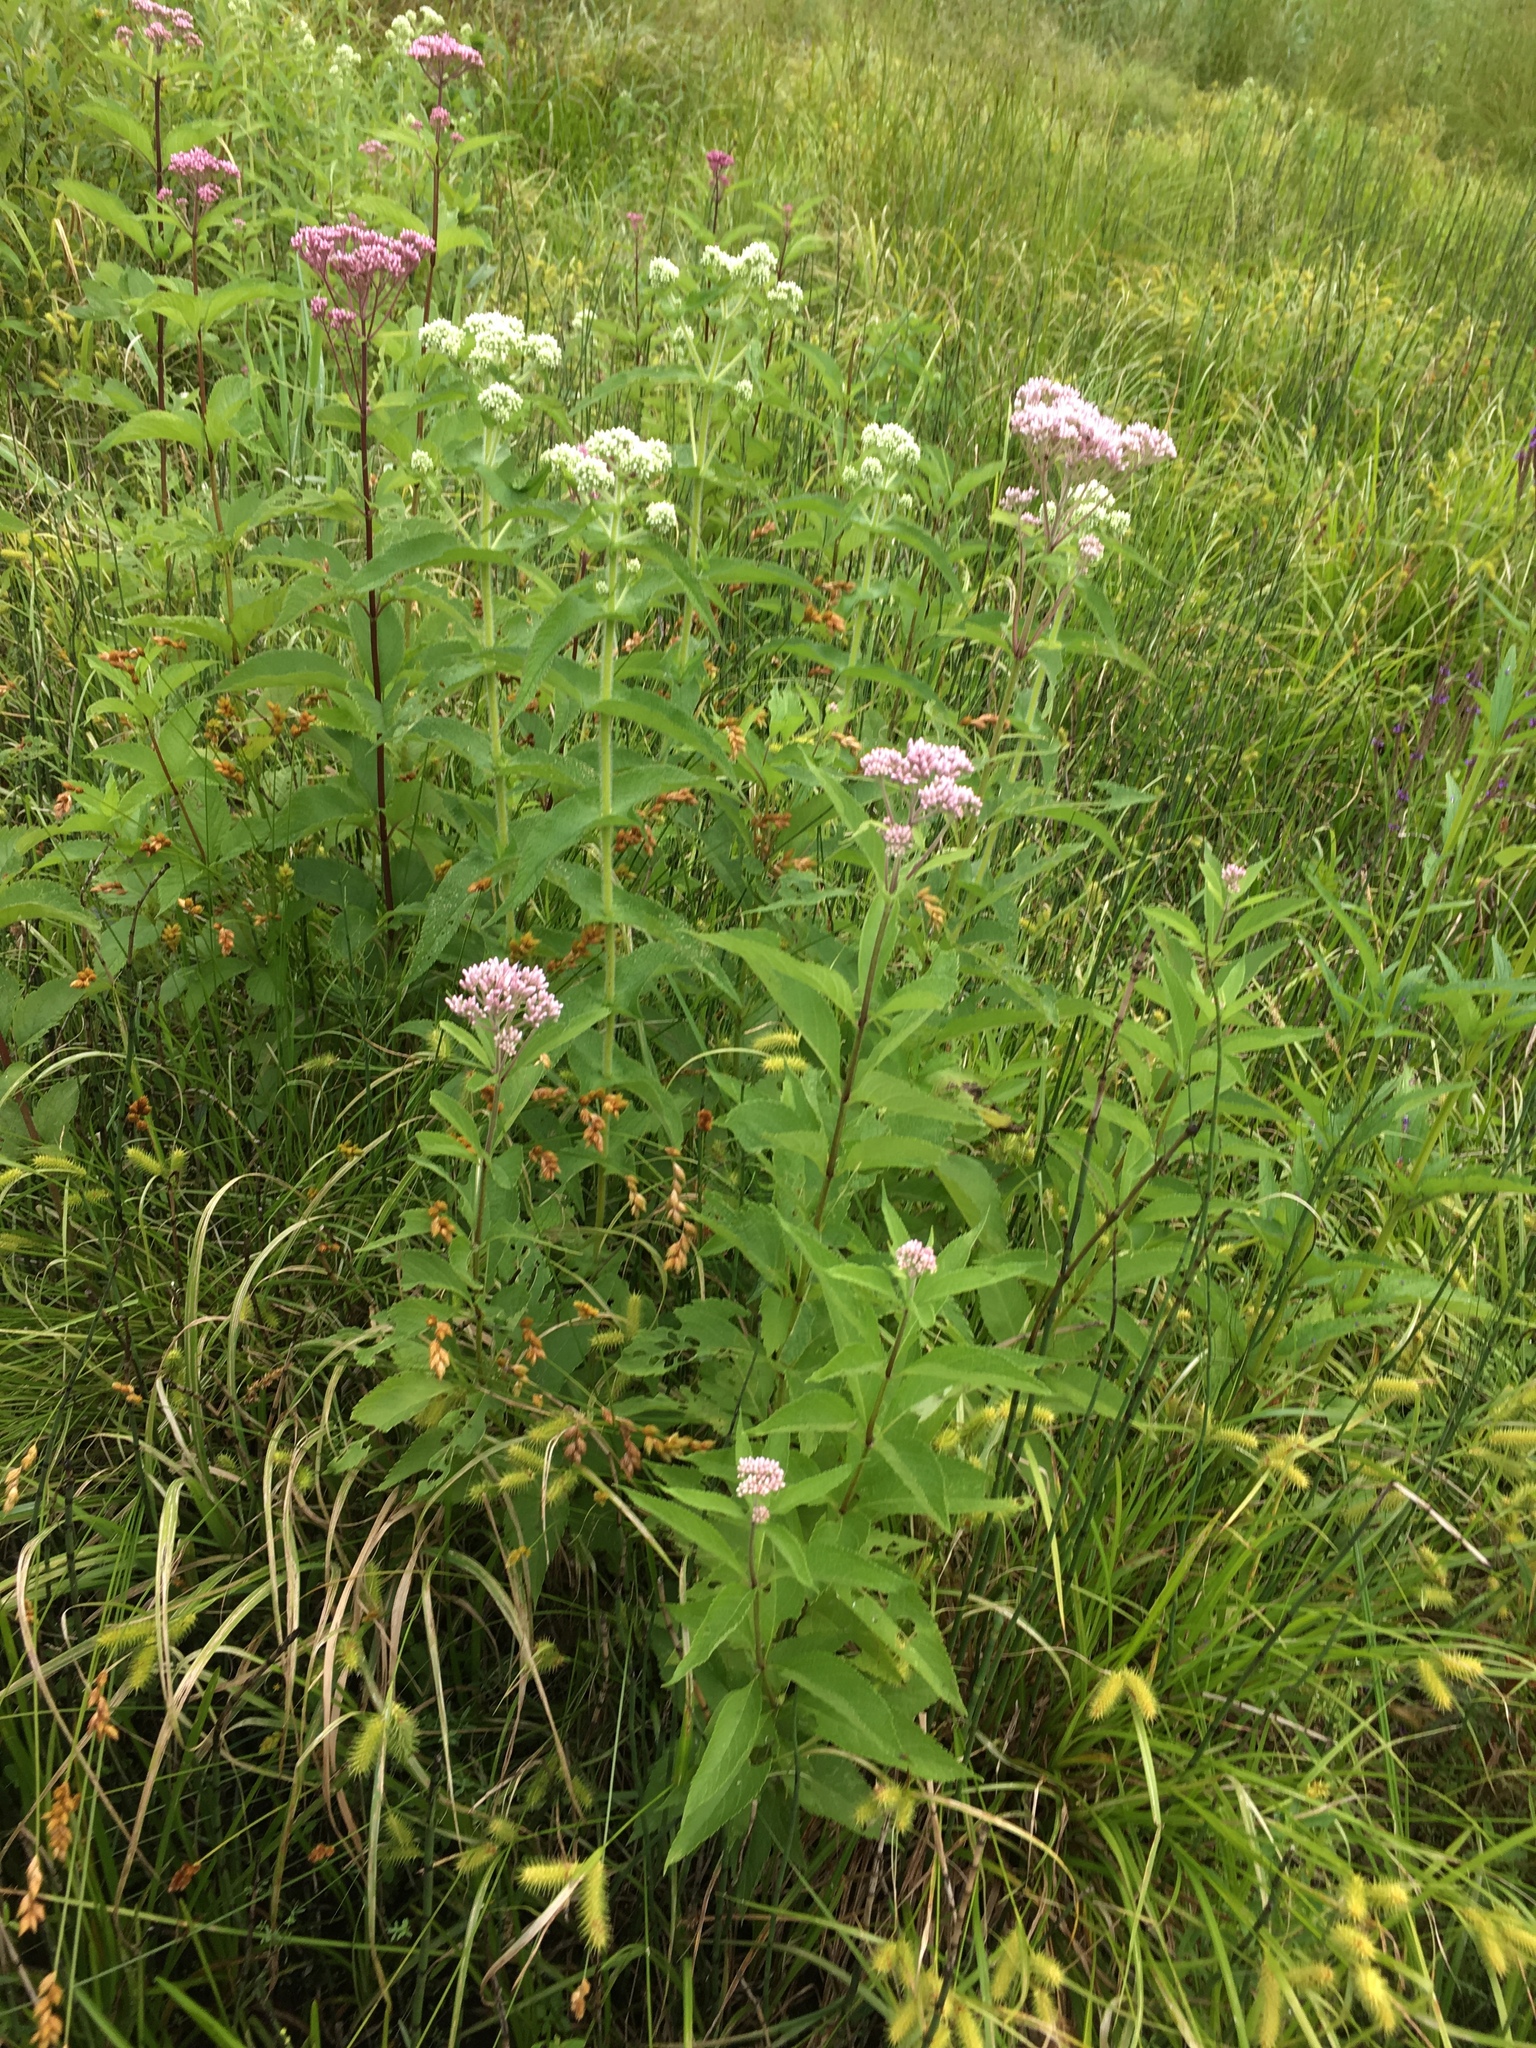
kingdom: Plantae
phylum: Tracheophyta
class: Magnoliopsida
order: Asterales
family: Asteraceae
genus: Eutrochium
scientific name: Eutrochium maculatum
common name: Spotted joe pye weed
